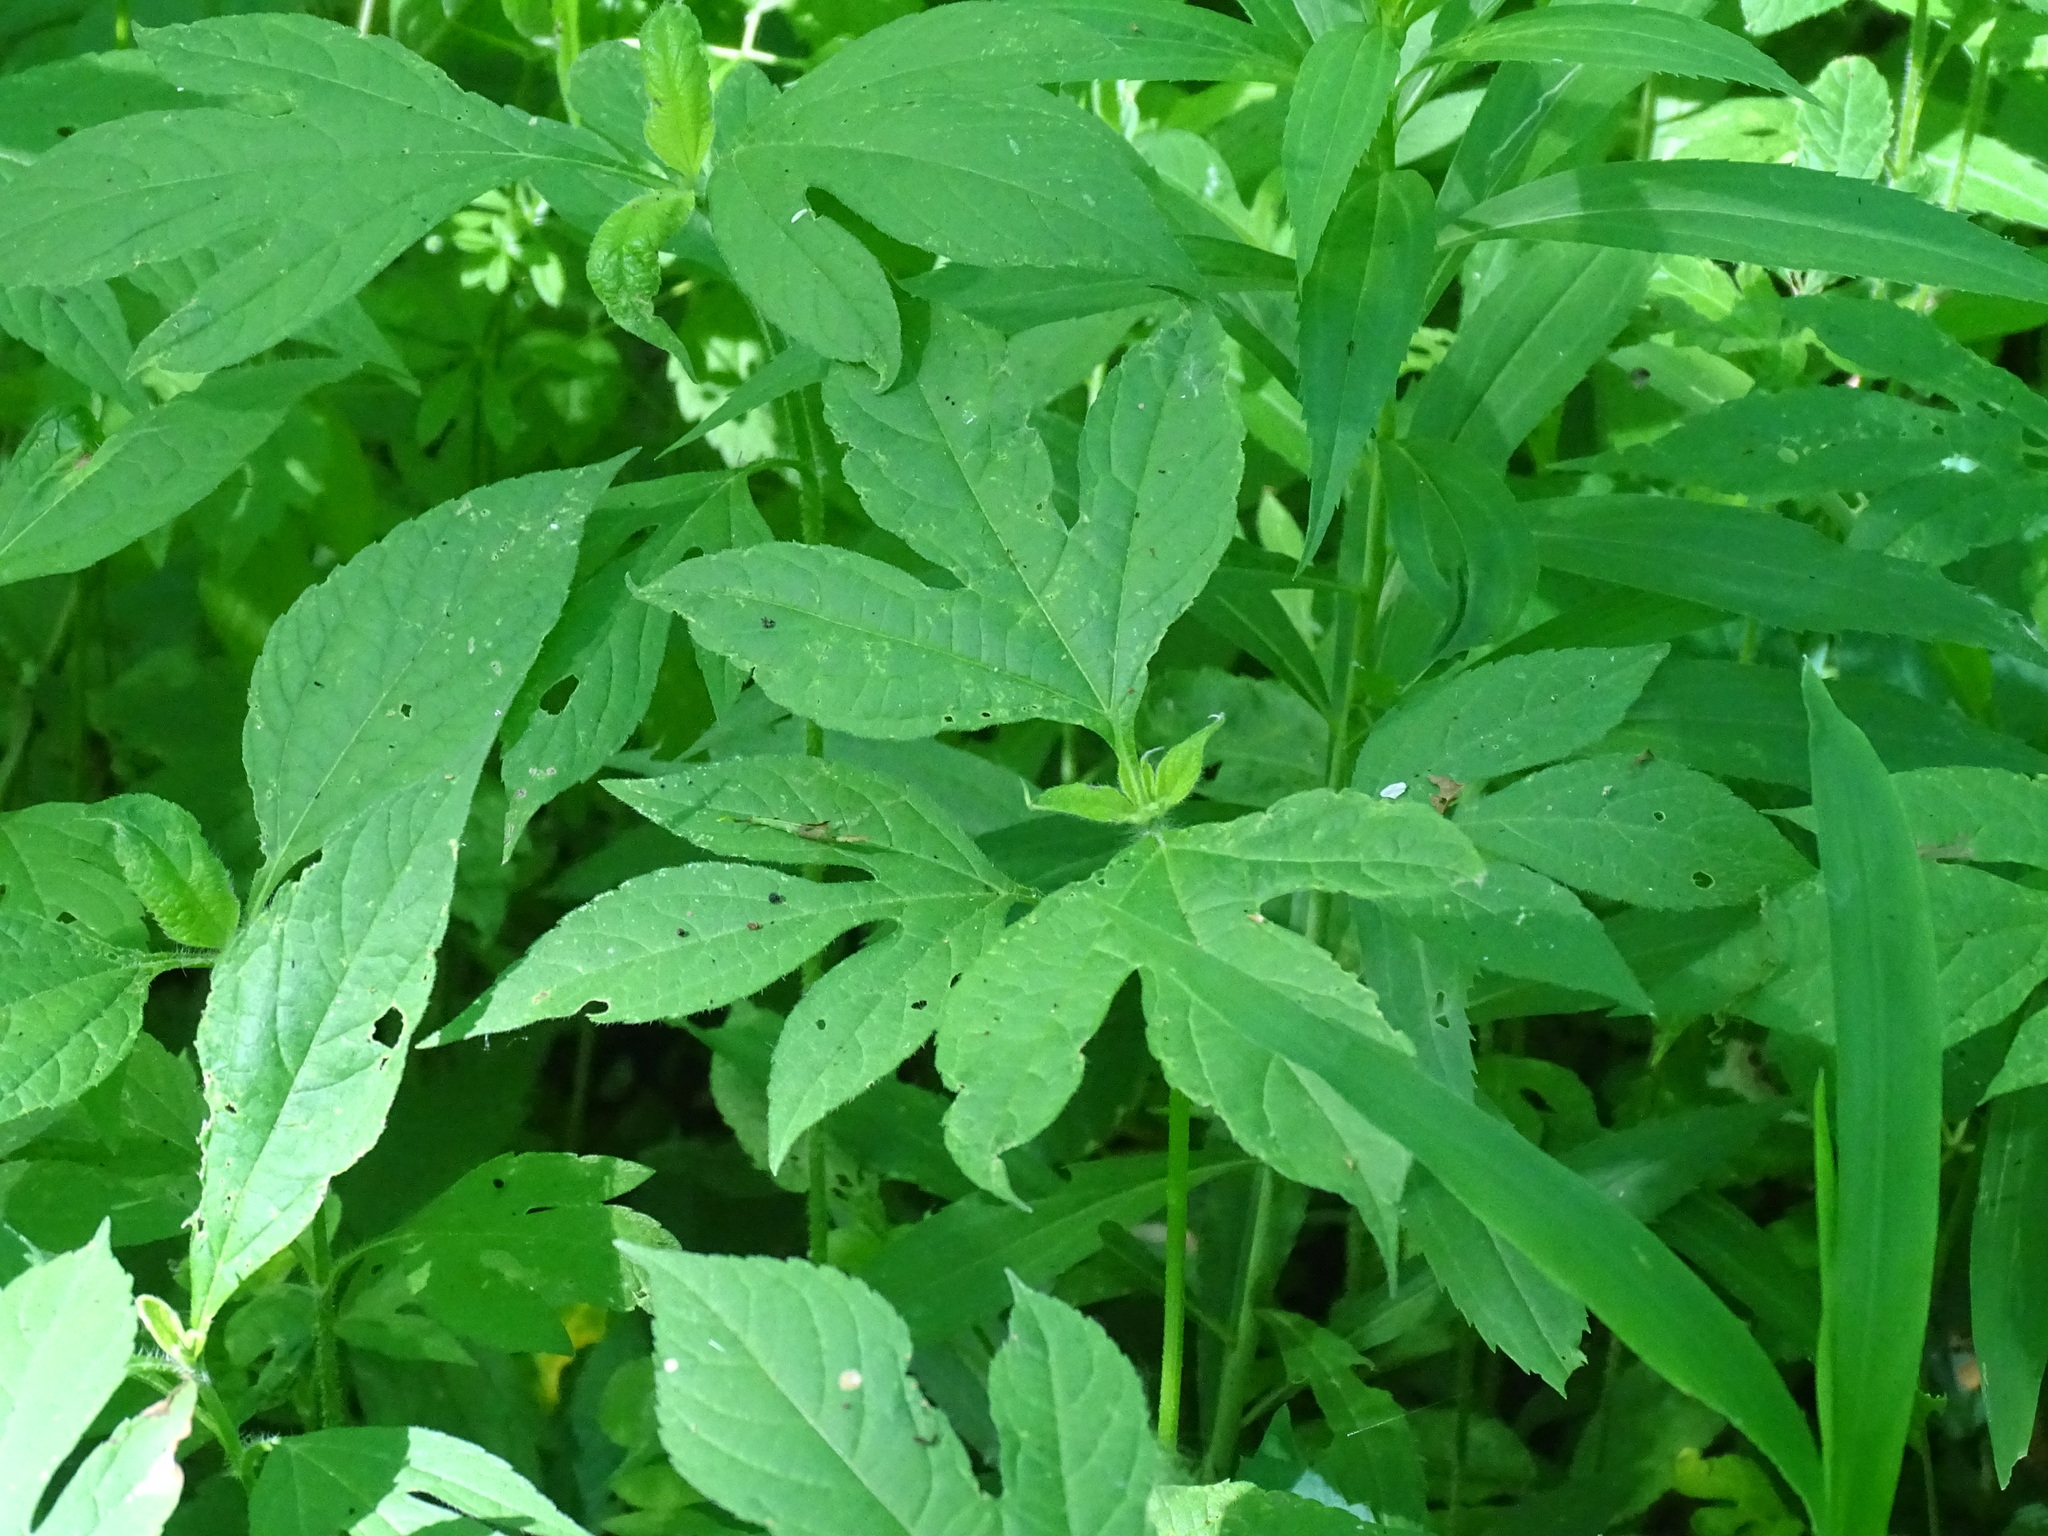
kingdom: Plantae
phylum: Tracheophyta
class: Magnoliopsida
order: Asterales
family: Asteraceae
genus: Ambrosia
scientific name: Ambrosia trifida
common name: Giant ragweed
